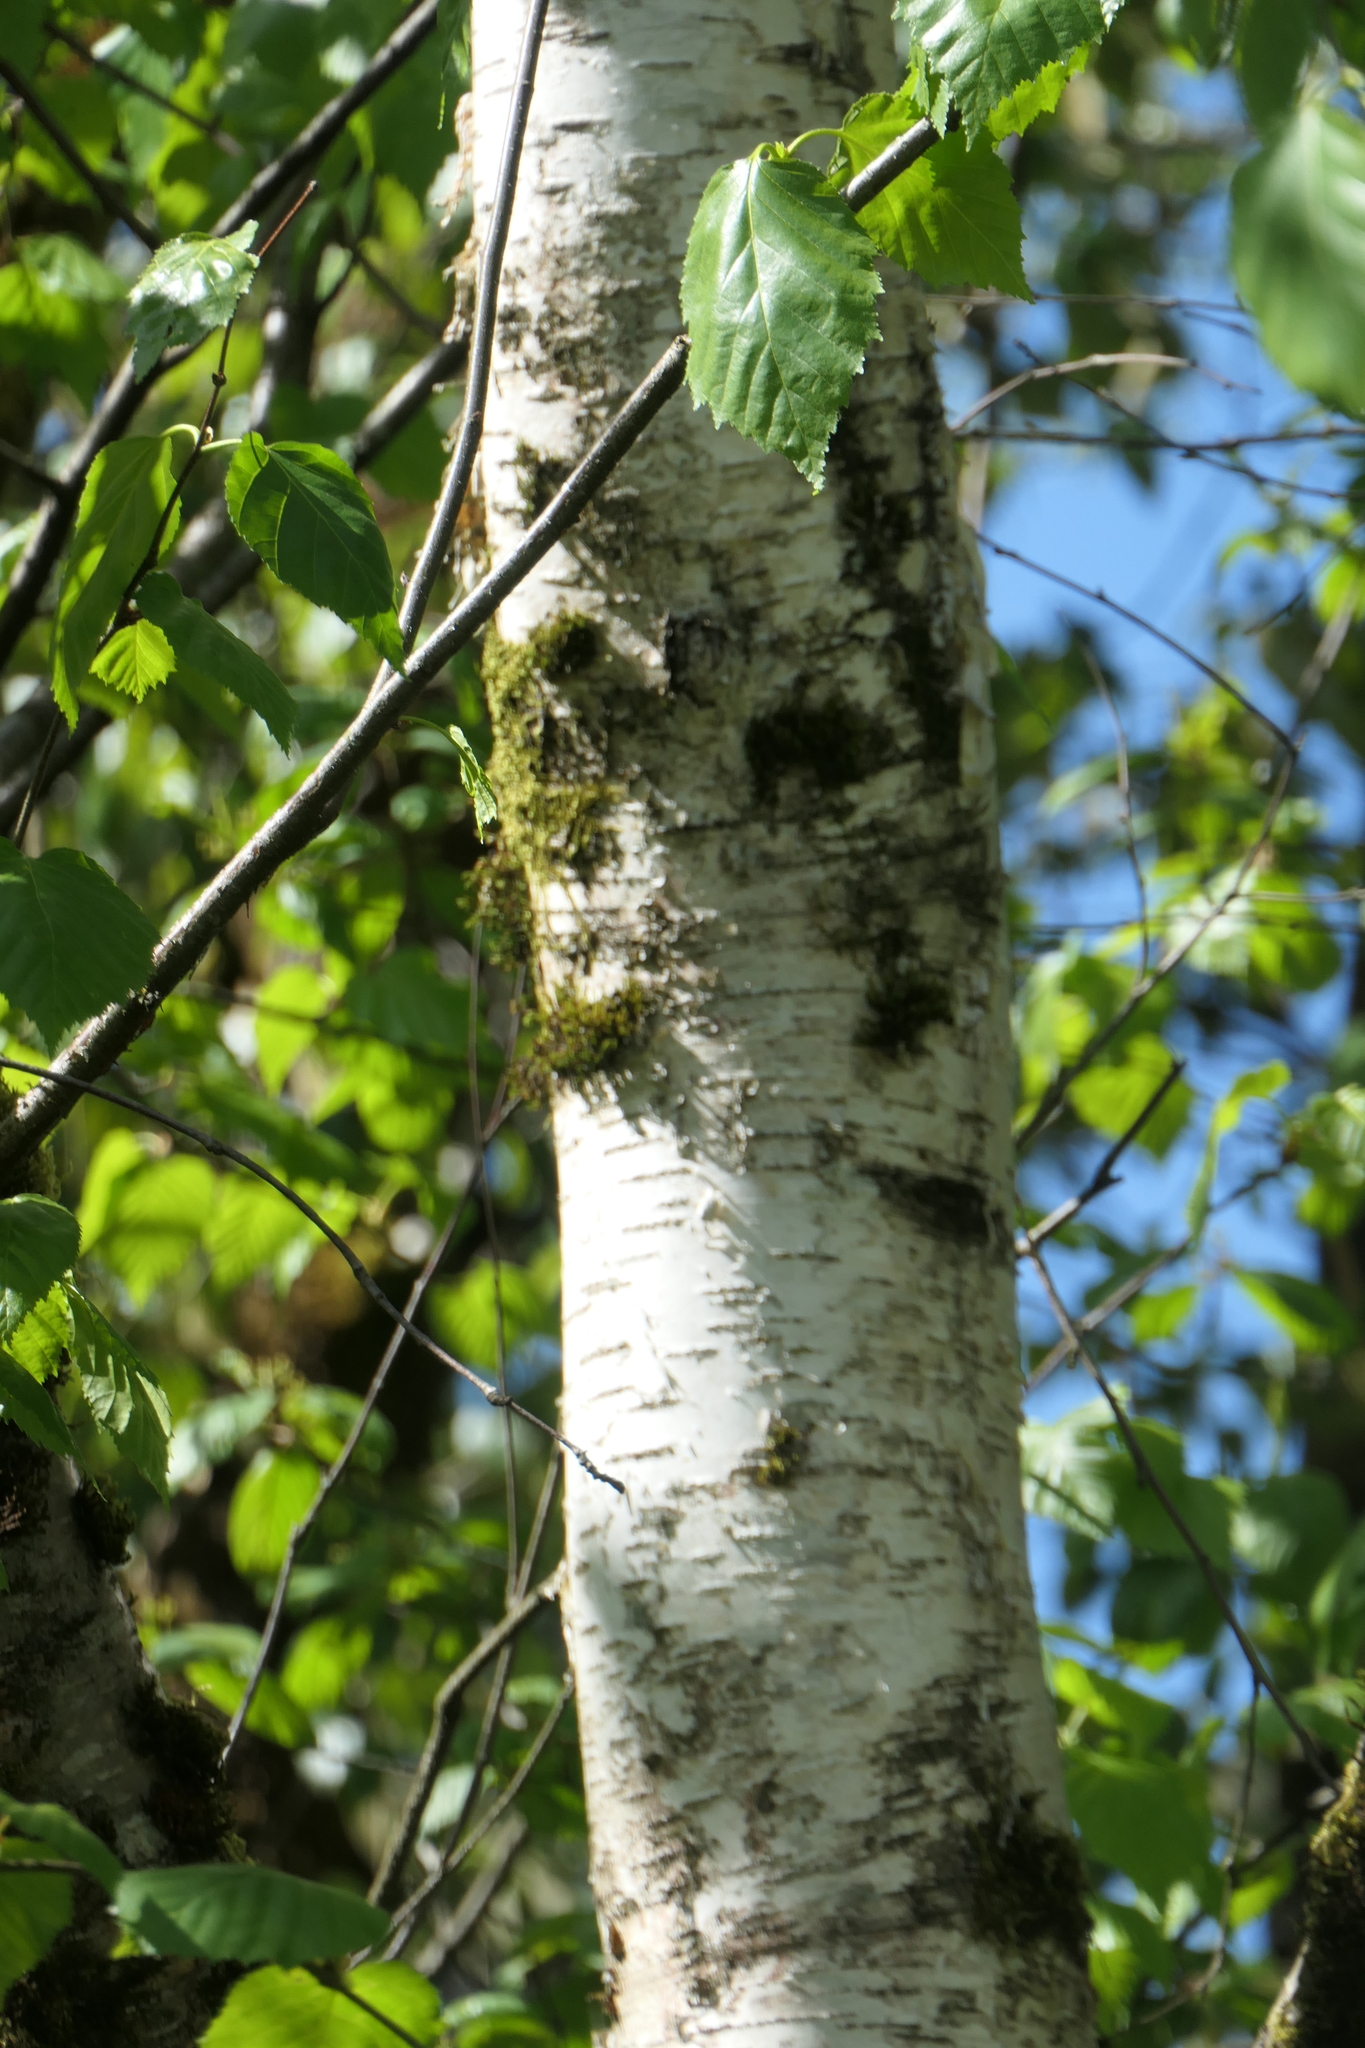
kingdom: Plantae
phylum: Tracheophyta
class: Magnoliopsida
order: Fagales
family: Betulaceae
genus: Betula
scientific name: Betula papyrifera
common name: Paper birch
